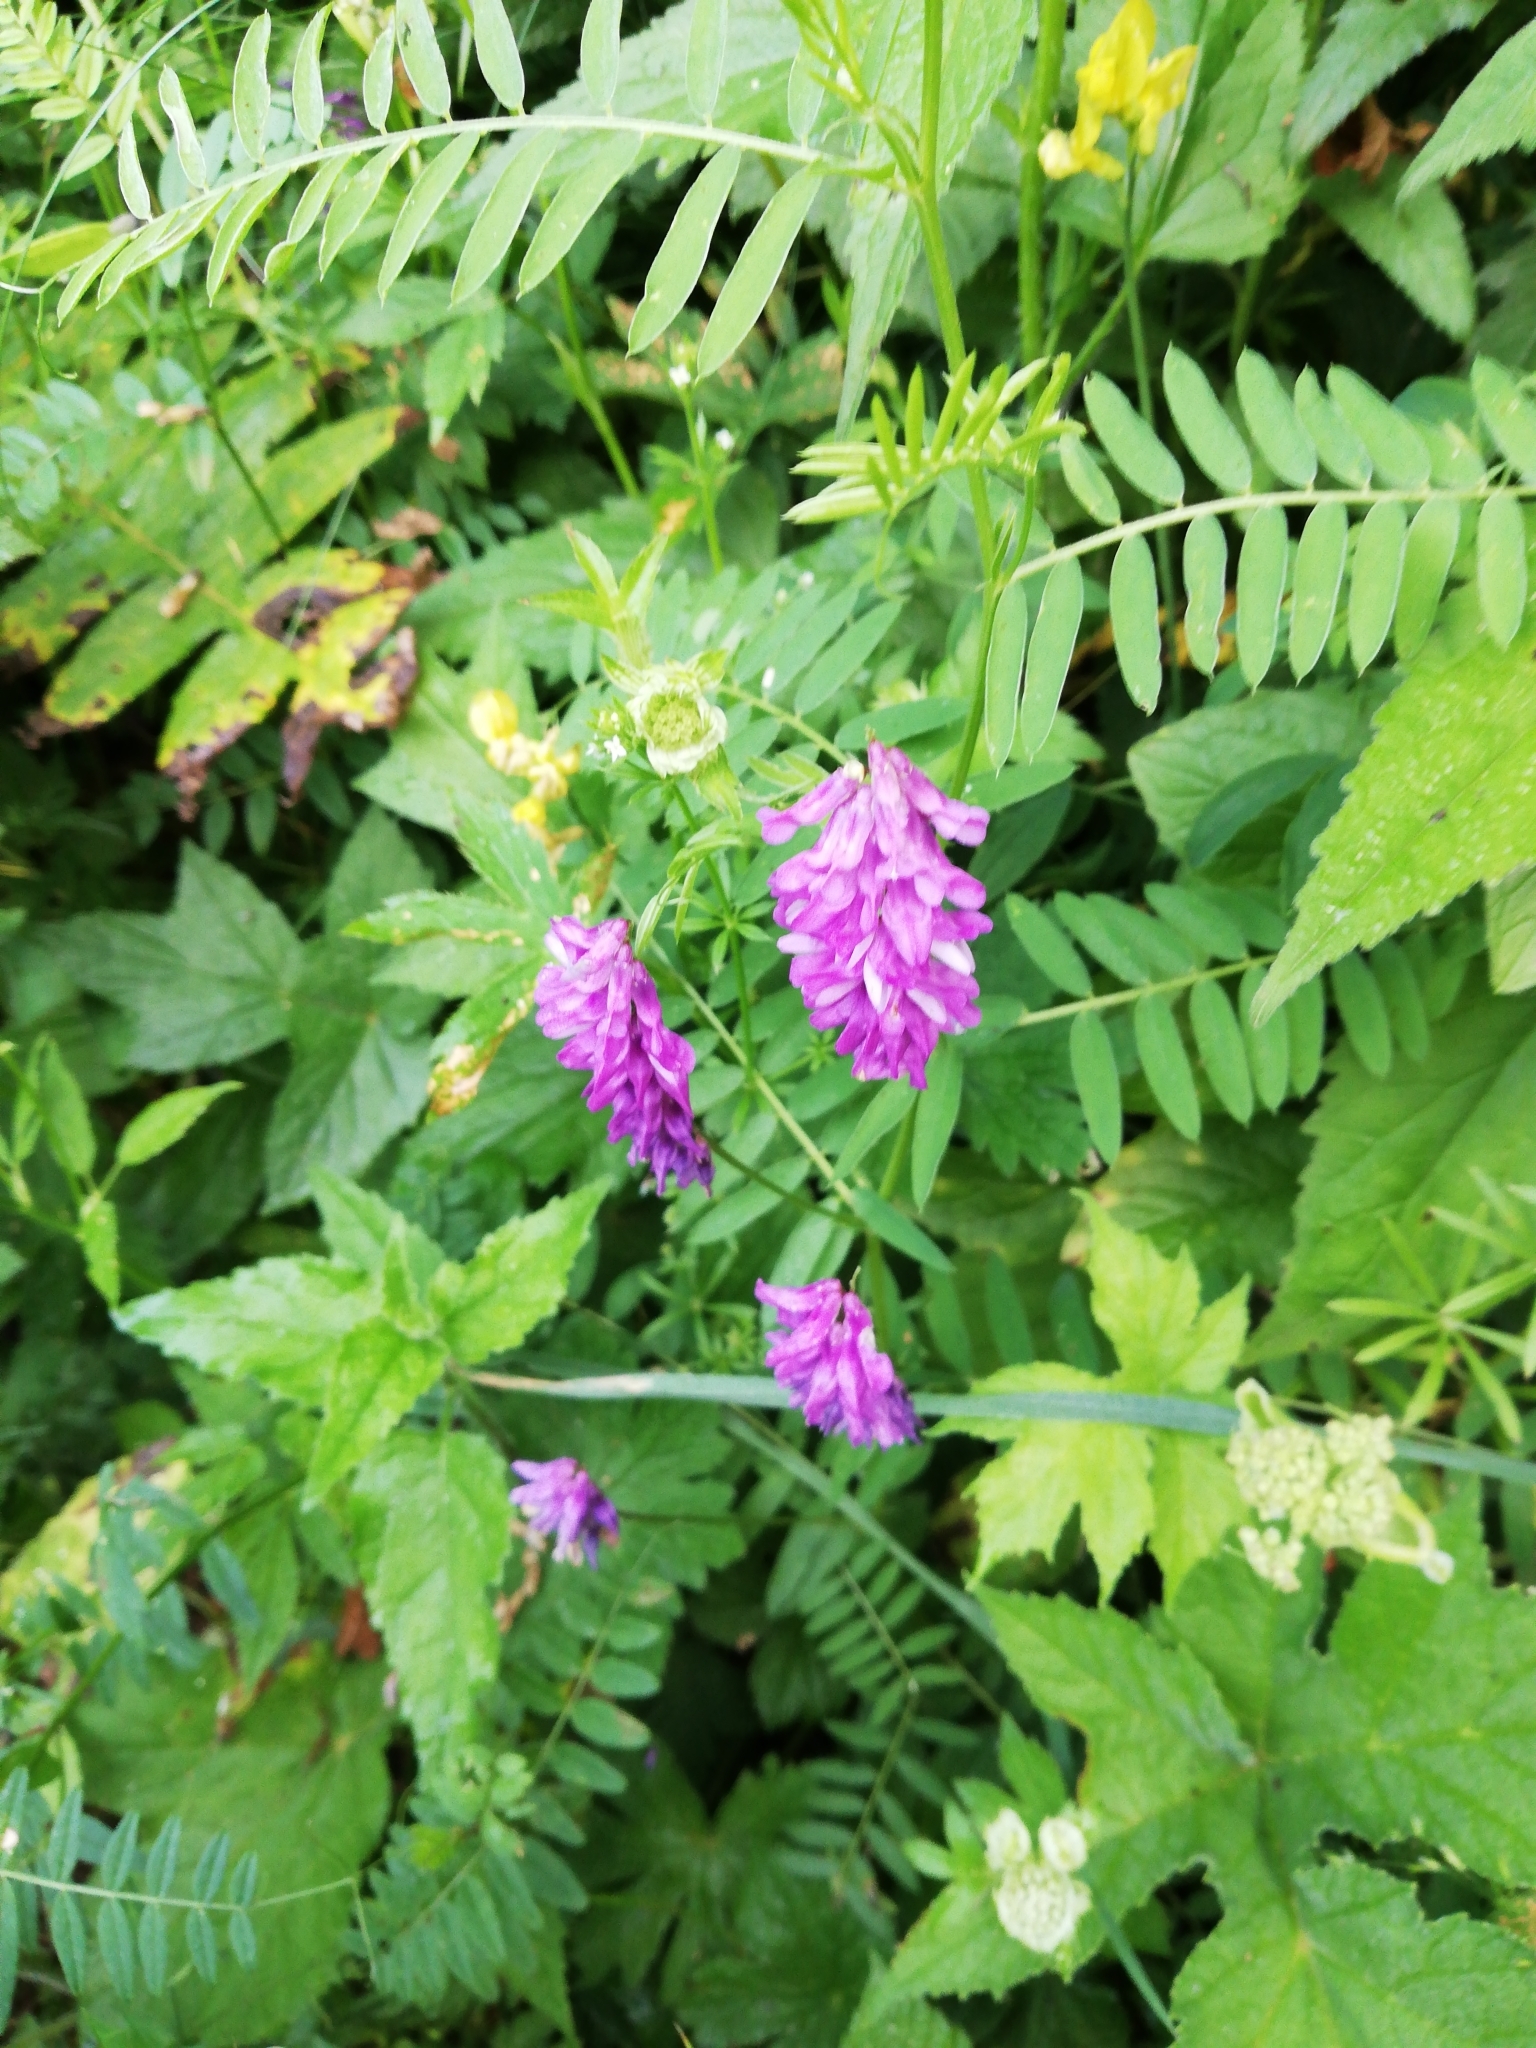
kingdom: Plantae
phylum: Tracheophyta
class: Magnoliopsida
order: Fabales
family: Fabaceae
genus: Vicia
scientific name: Vicia cracca
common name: Bird vetch
